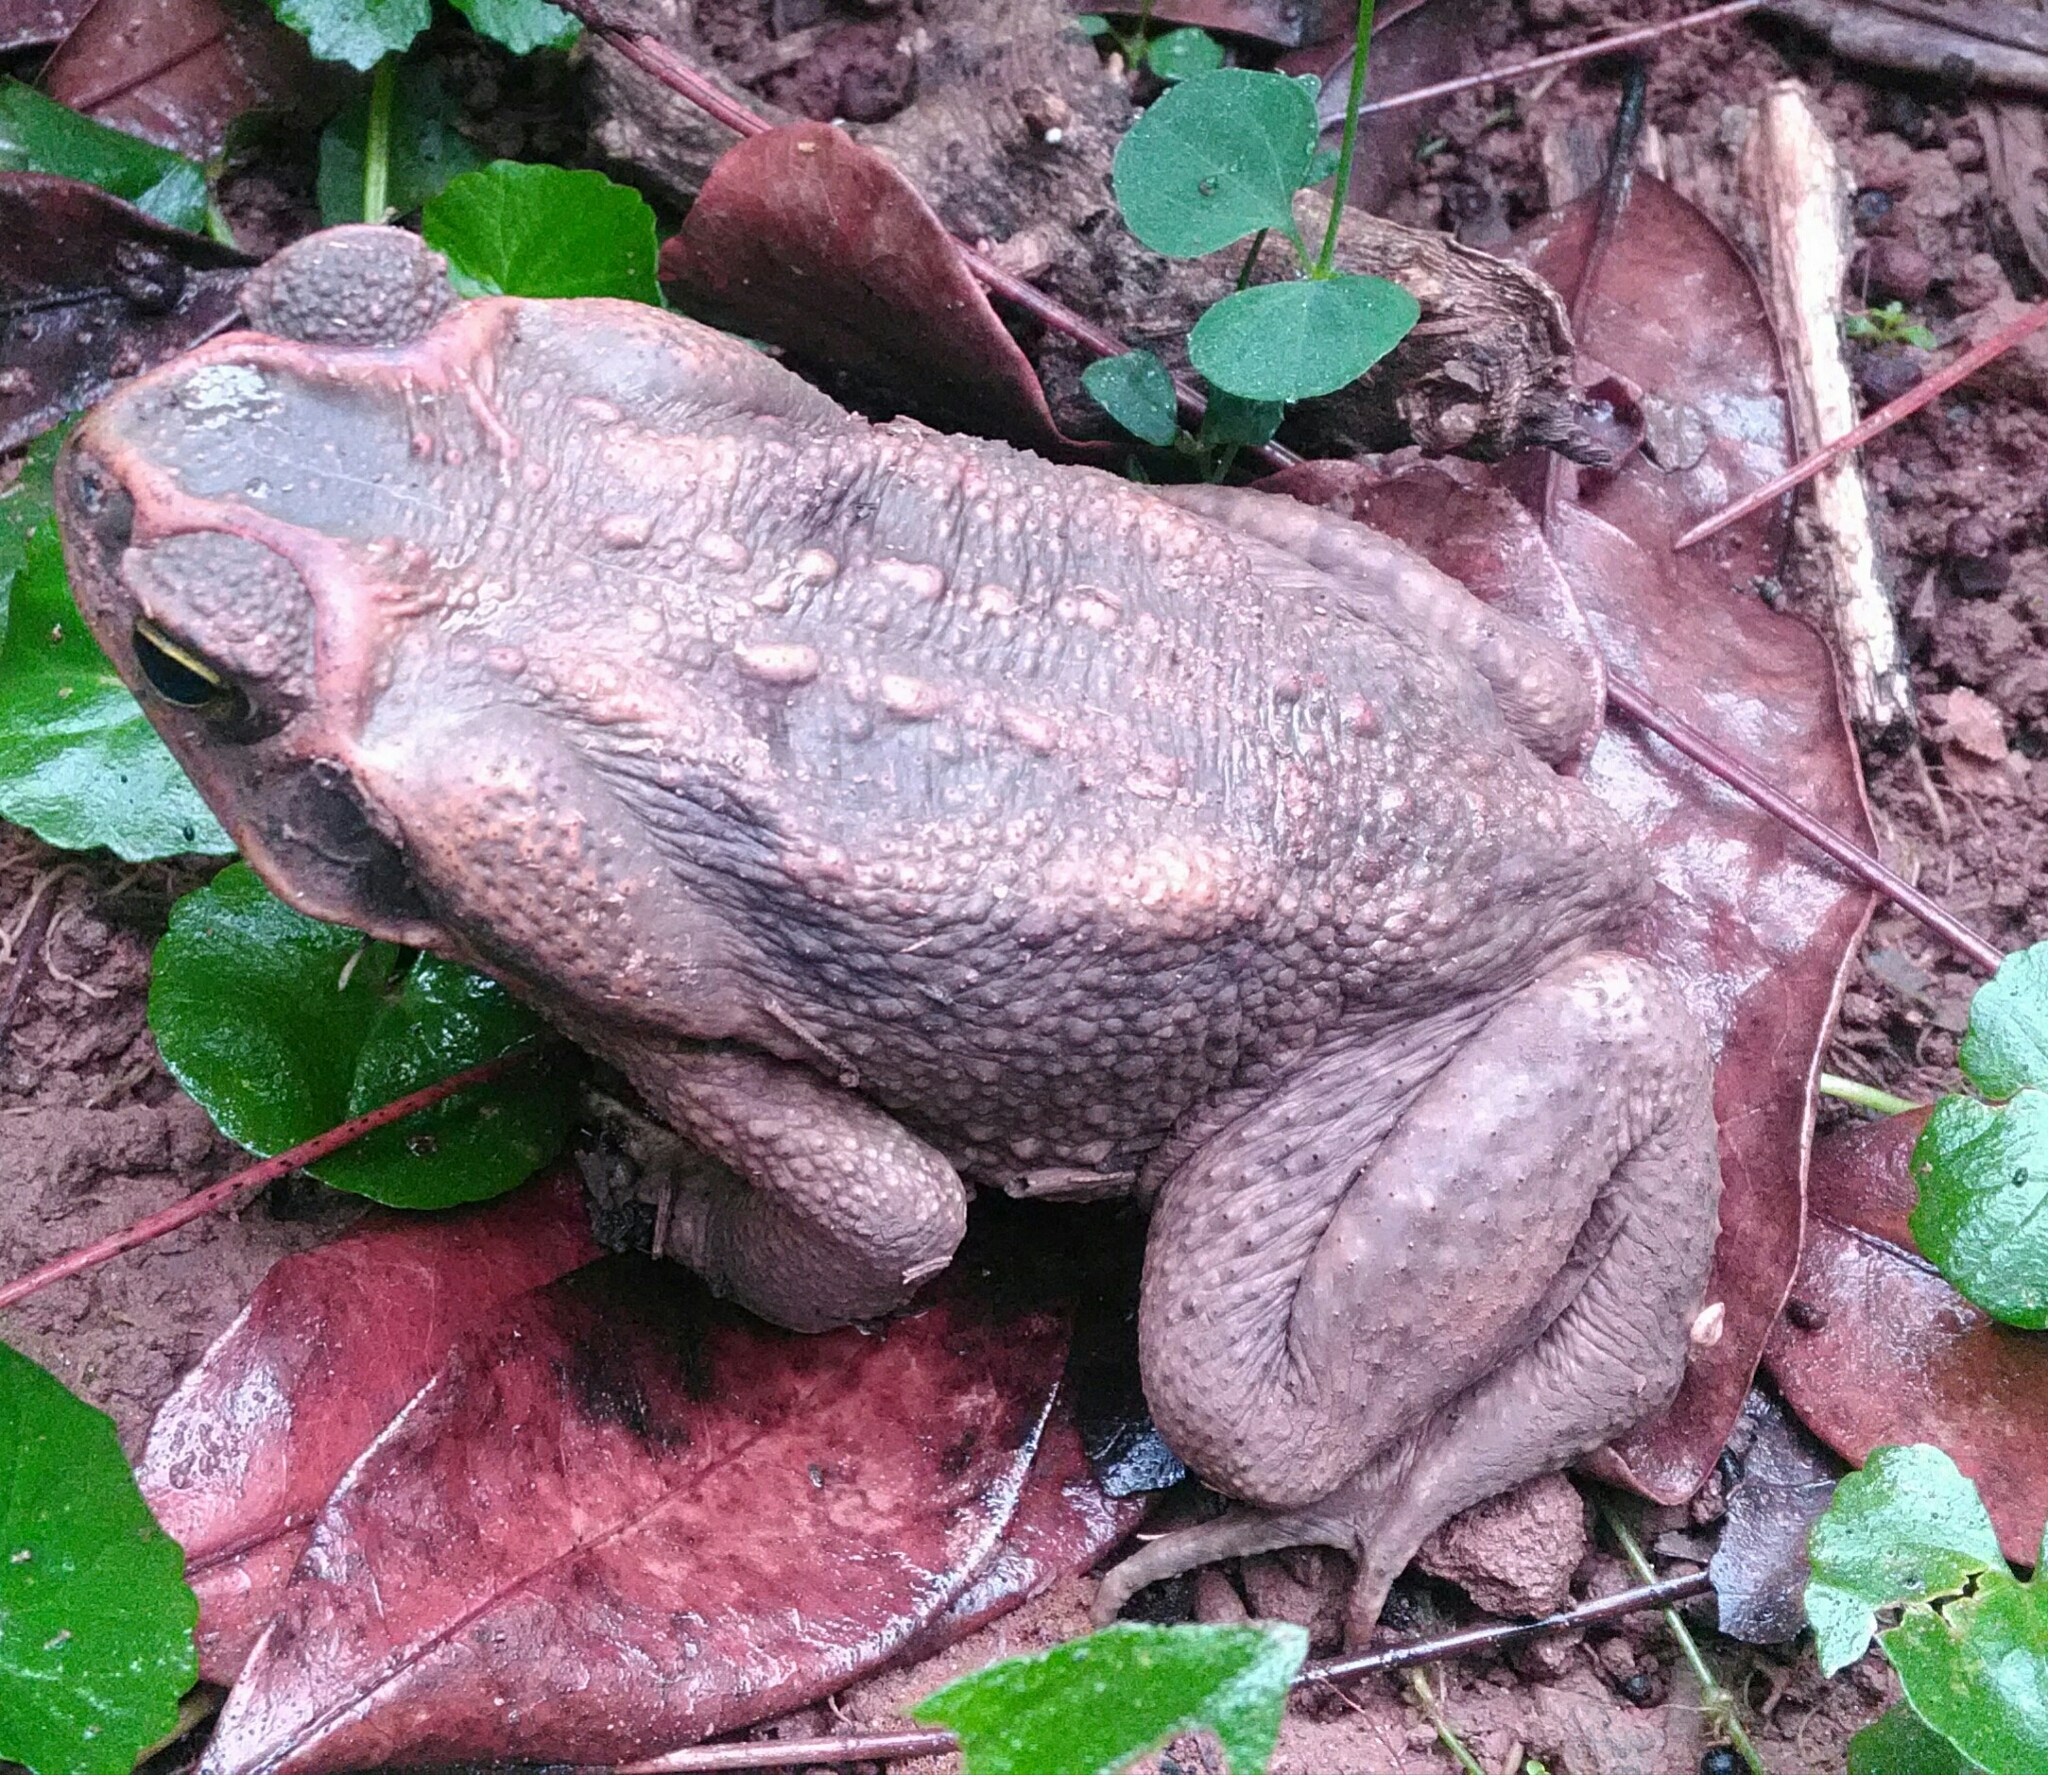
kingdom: Animalia
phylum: Chordata
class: Amphibia
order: Anura
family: Bufonidae
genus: Rhinella
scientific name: Rhinella diptycha
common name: Cope's toad
